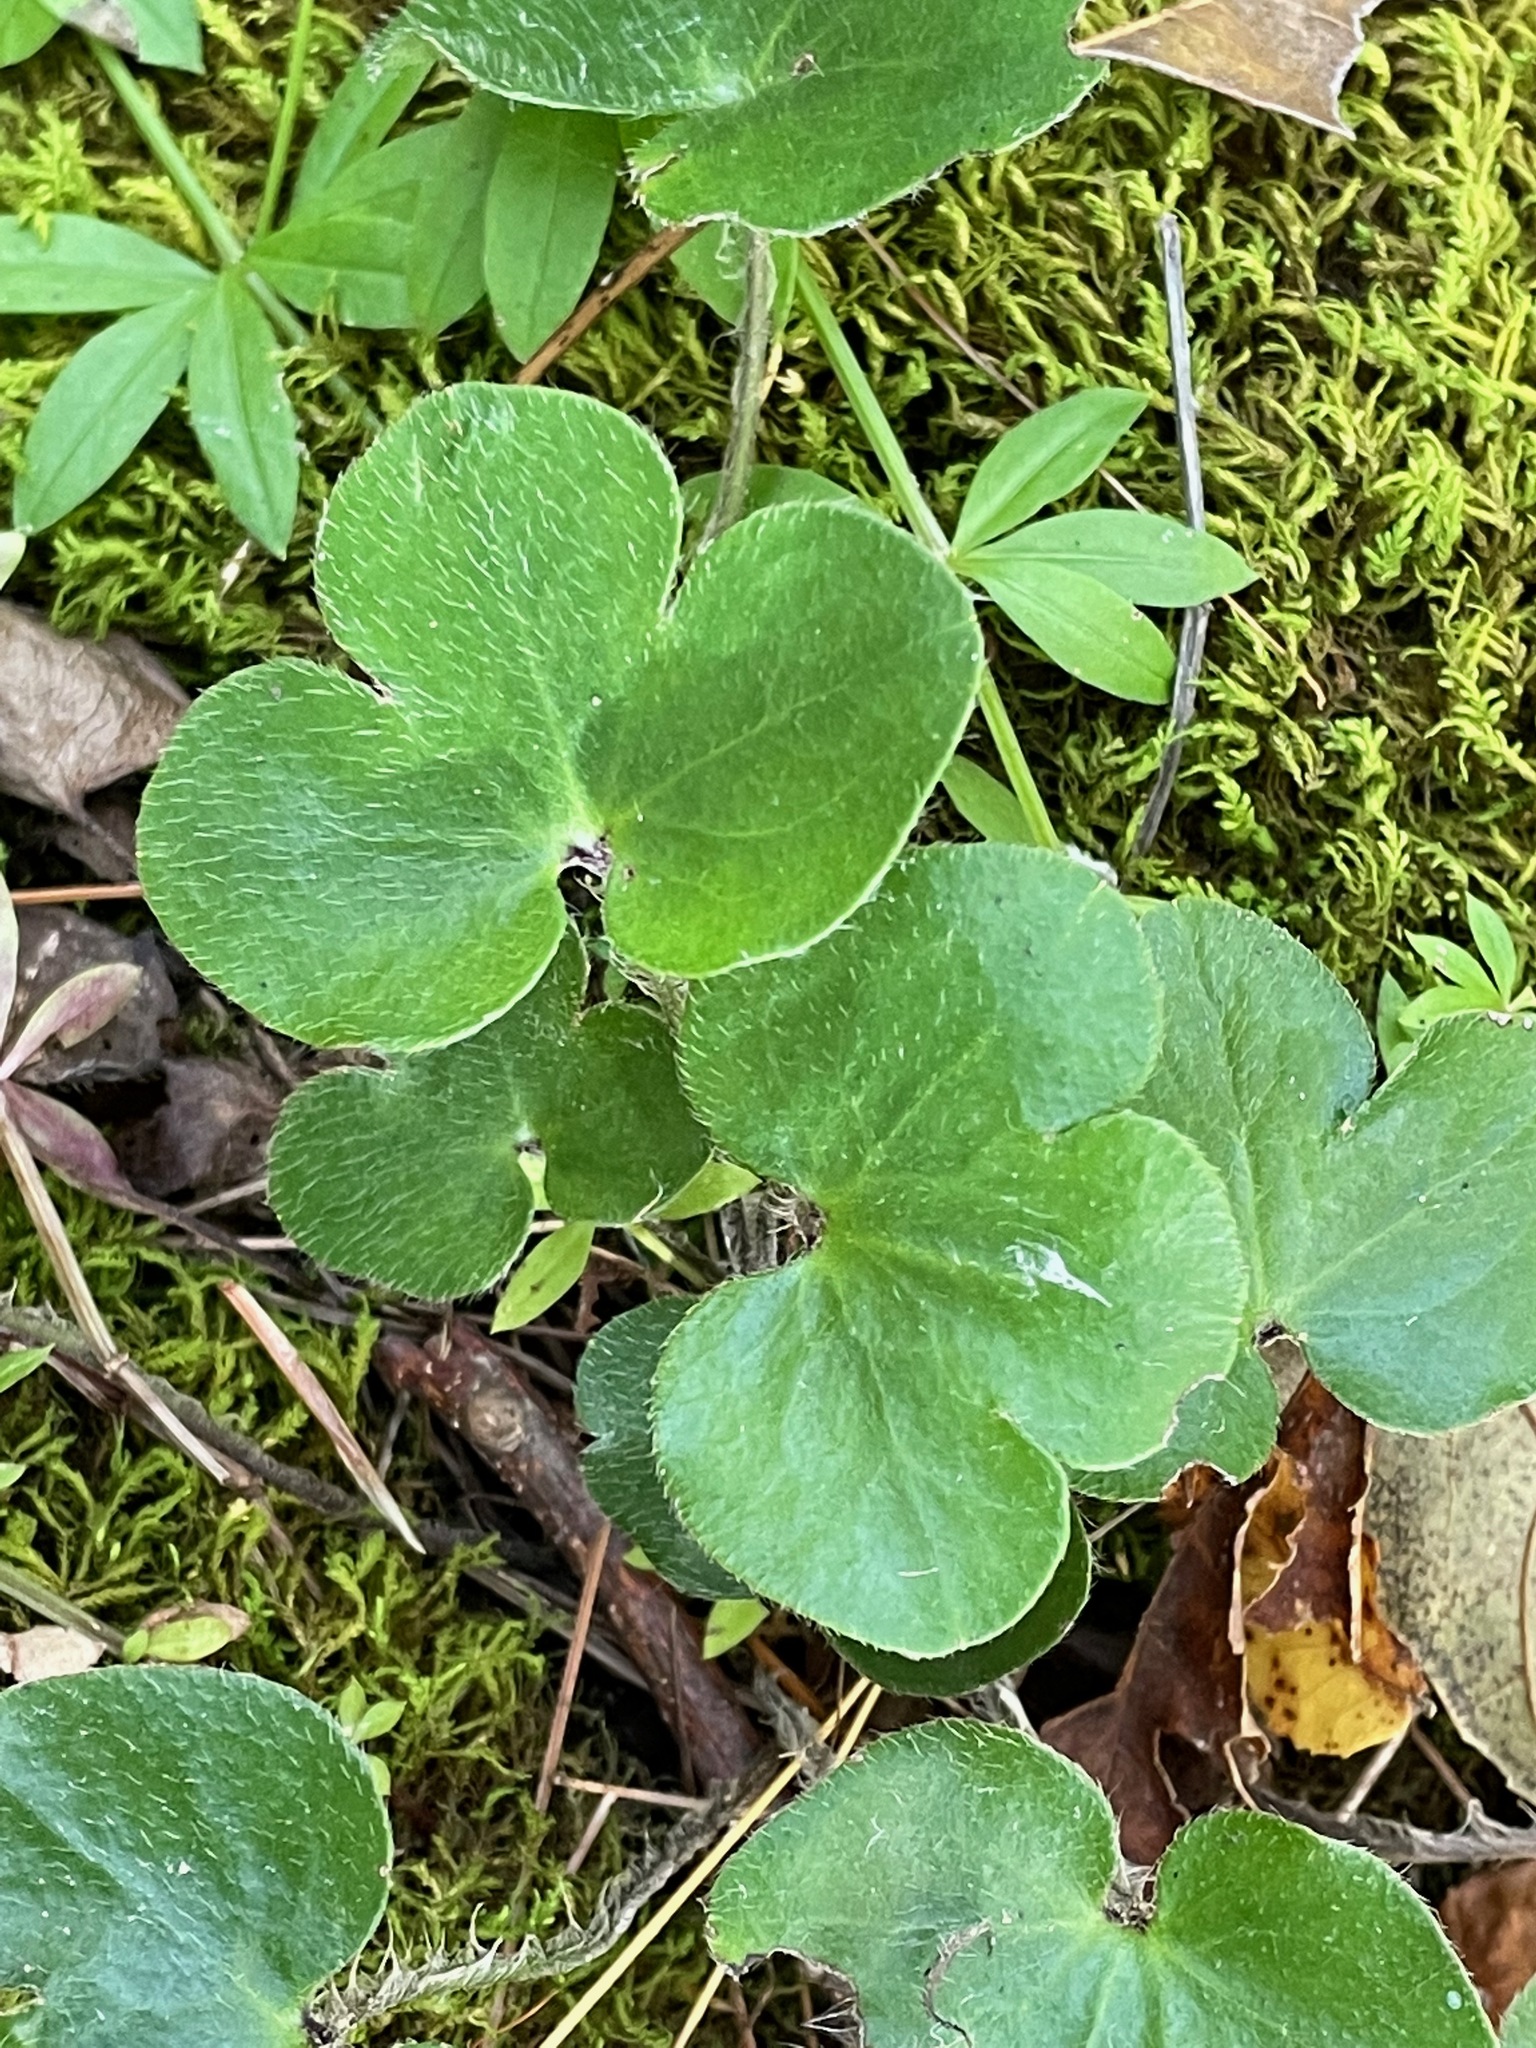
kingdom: Plantae
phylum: Tracheophyta
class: Magnoliopsida
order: Ranunculales
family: Ranunculaceae
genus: Hepatica
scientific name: Hepatica americana
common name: American hepatica
